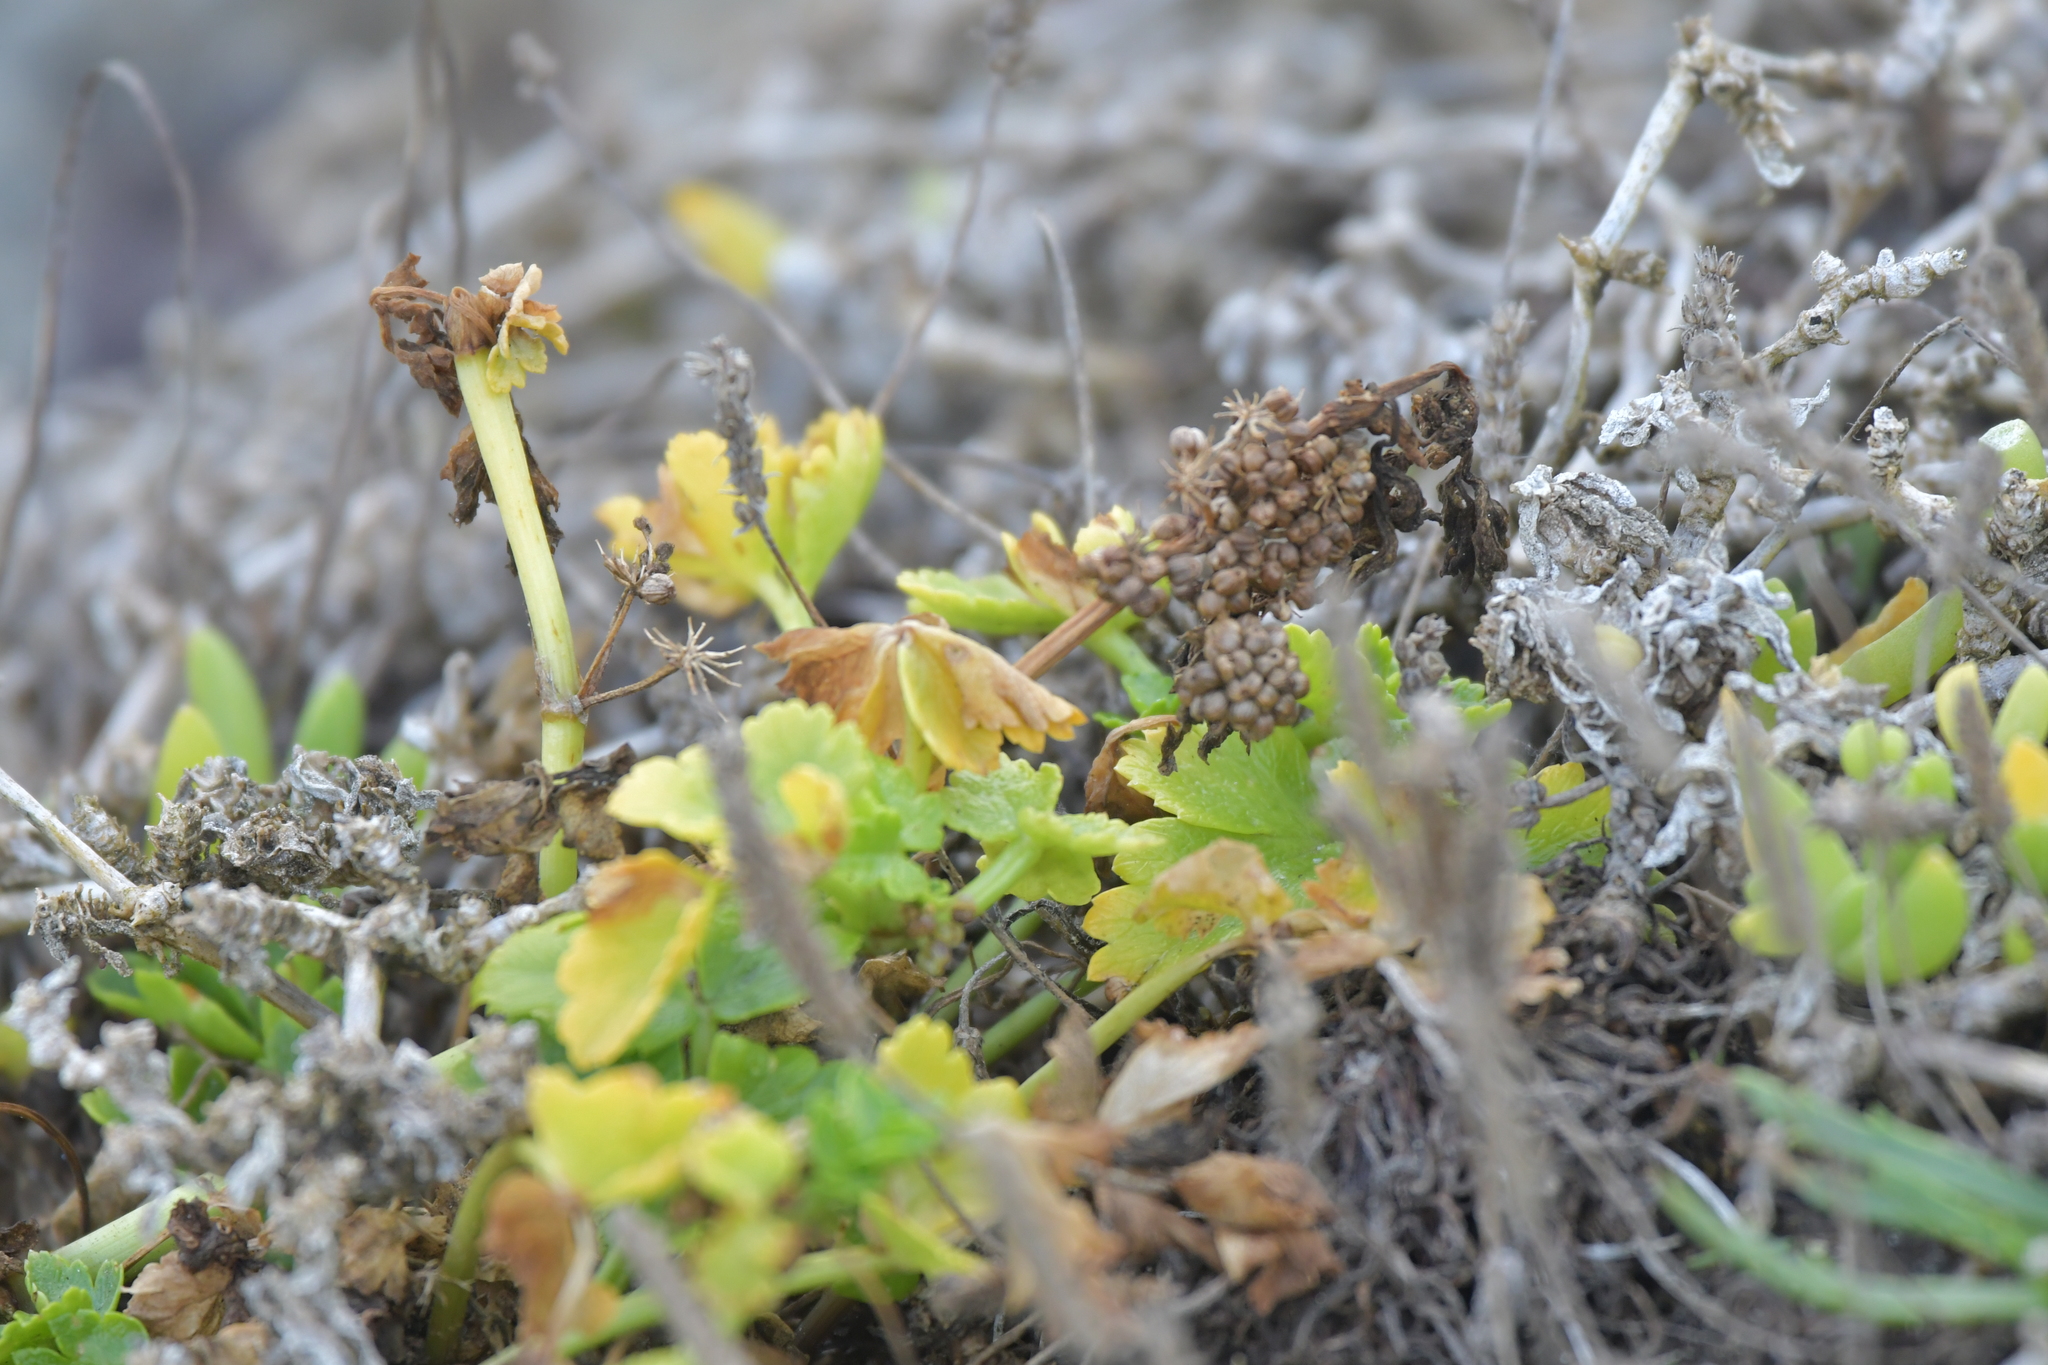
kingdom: Plantae
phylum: Tracheophyta
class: Magnoliopsida
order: Apiales
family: Apiaceae
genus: Apium
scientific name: Apium prostratum
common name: Prostrate marshwort
